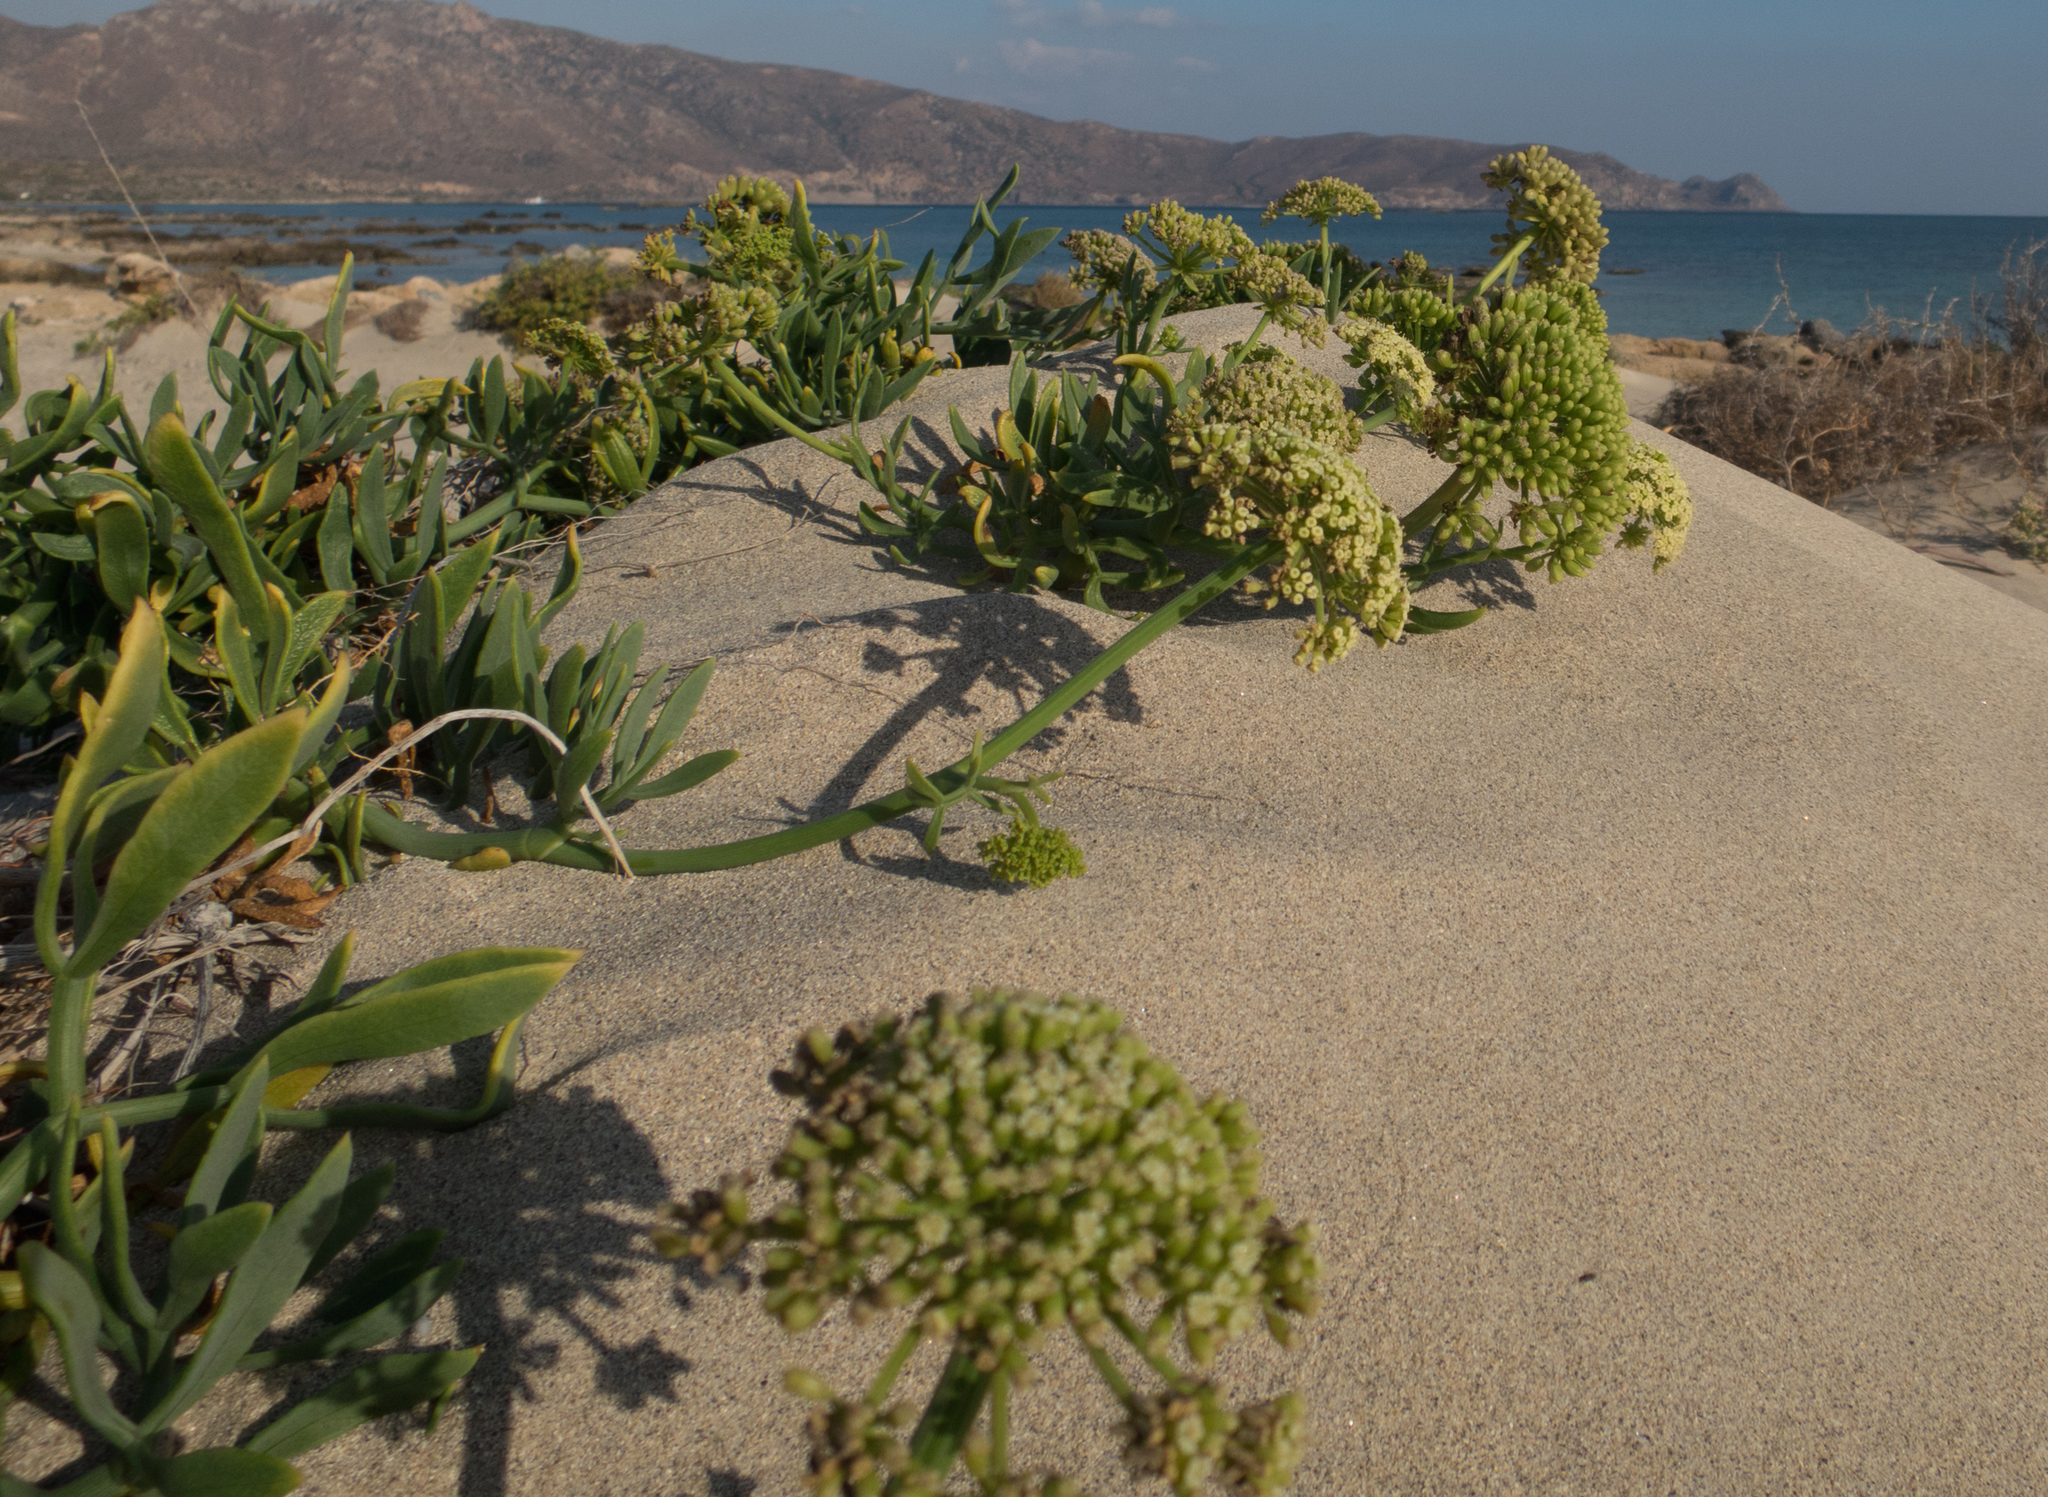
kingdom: Plantae
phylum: Tracheophyta
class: Magnoliopsida
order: Apiales
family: Apiaceae
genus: Crithmum
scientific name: Crithmum maritimum
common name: Rock samphire
